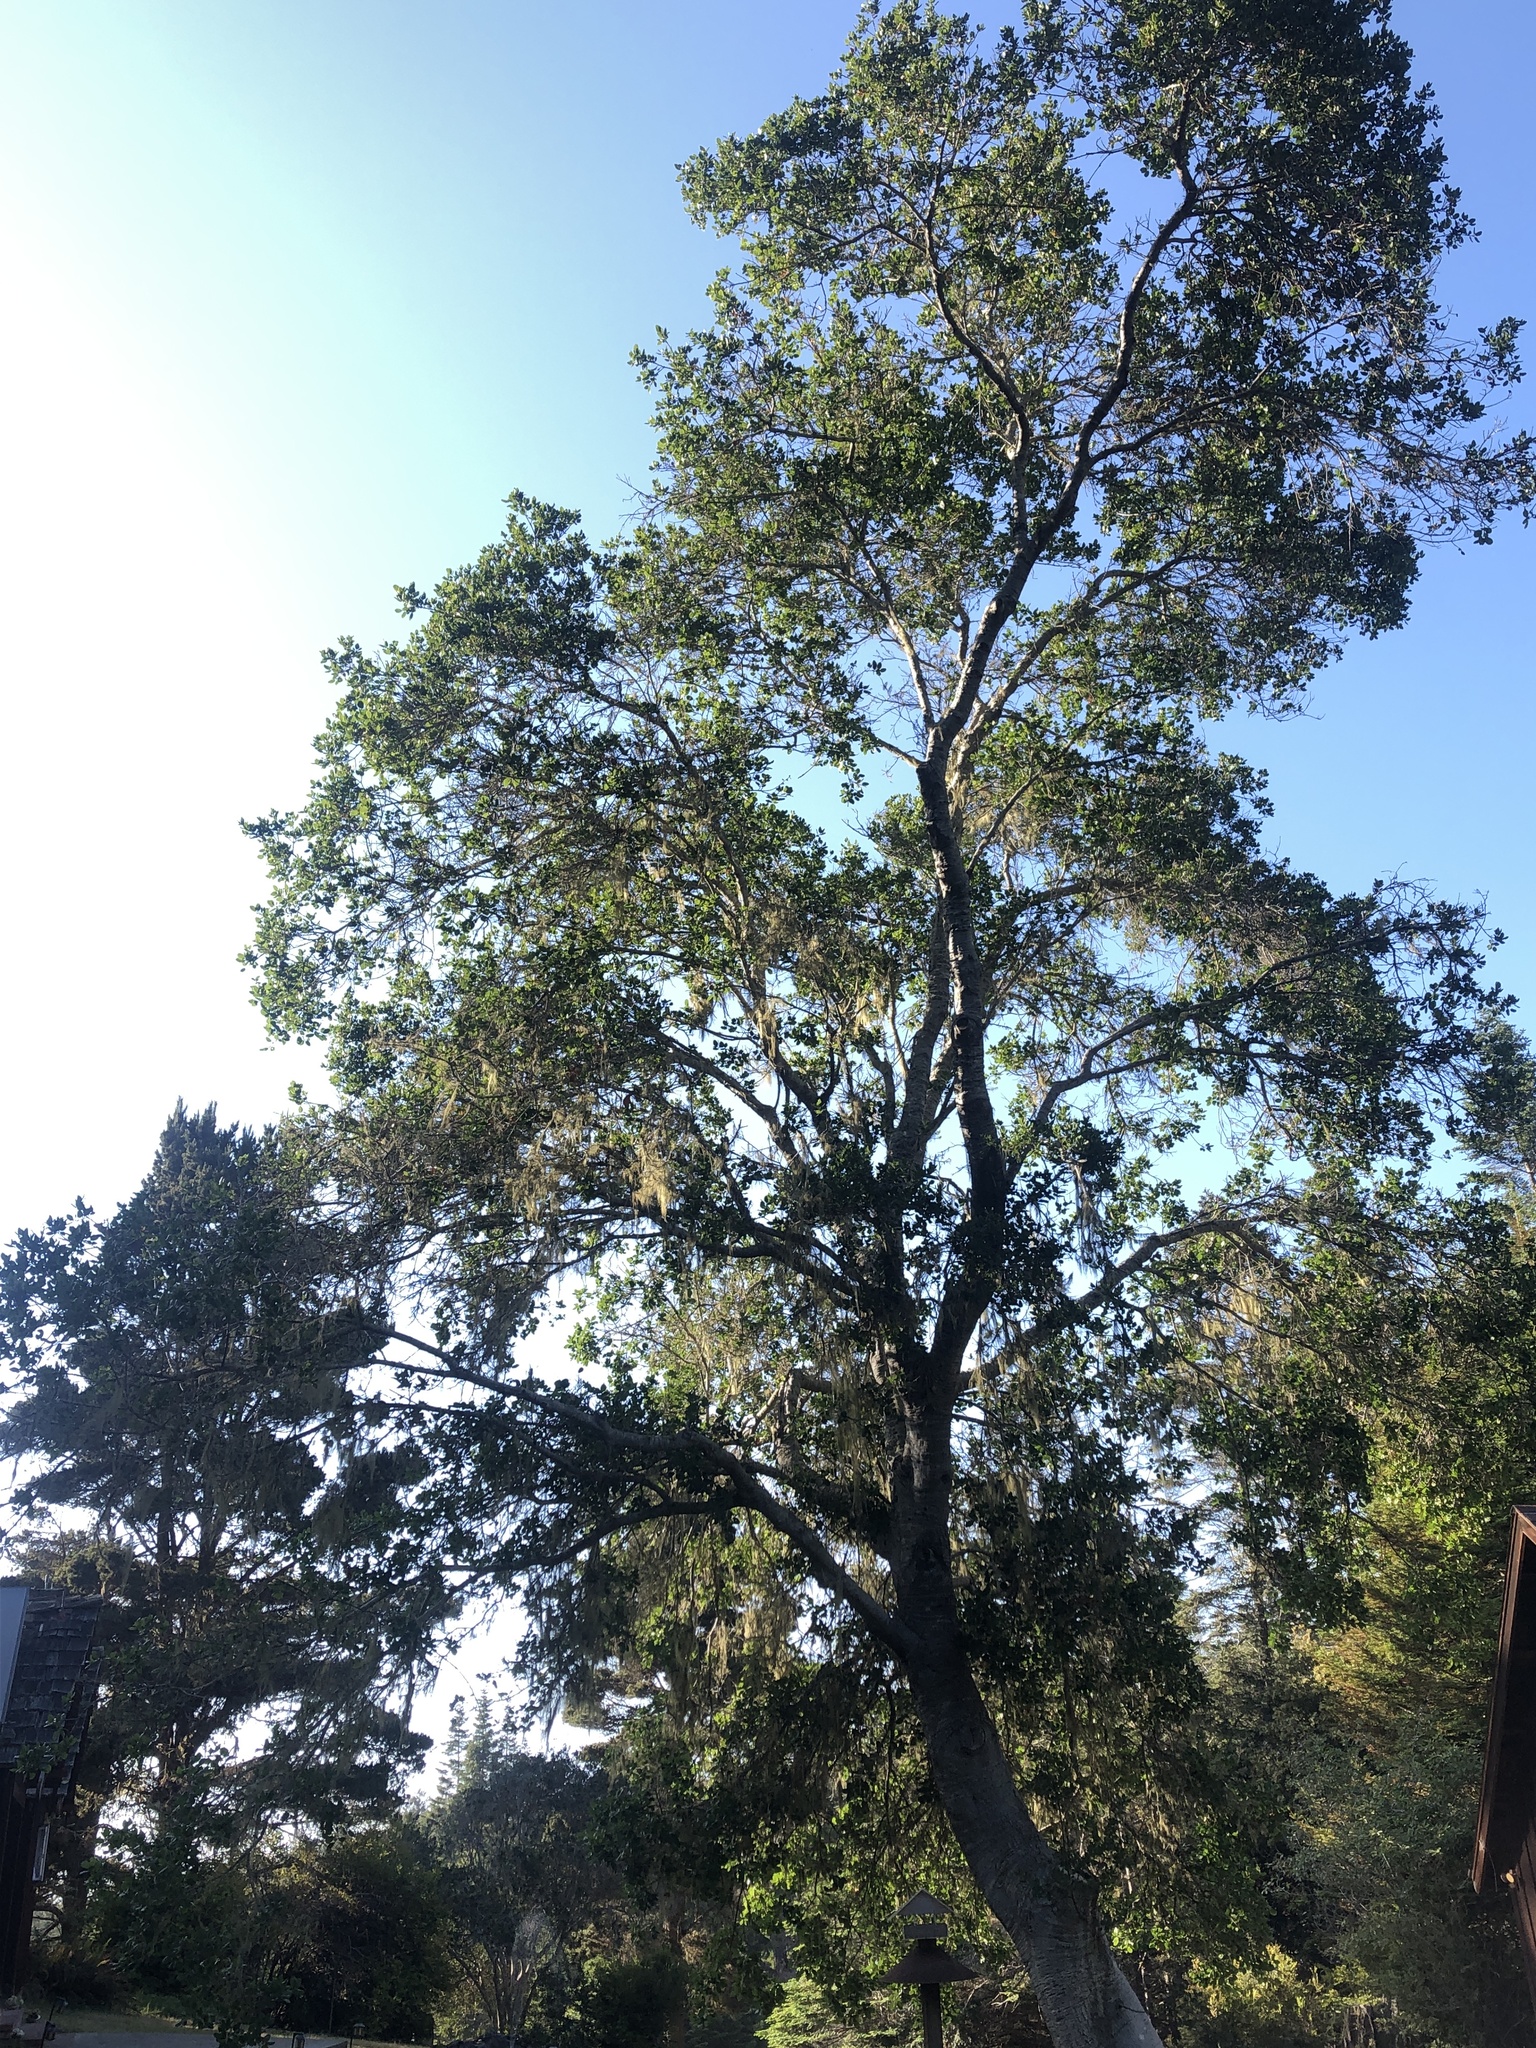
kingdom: Chromista
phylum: Oomycota
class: Peronosporea
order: Peronosporales
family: Peronosporaceae
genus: Phytophthora
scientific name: Phytophthora ramorum
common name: Sudden oak death
